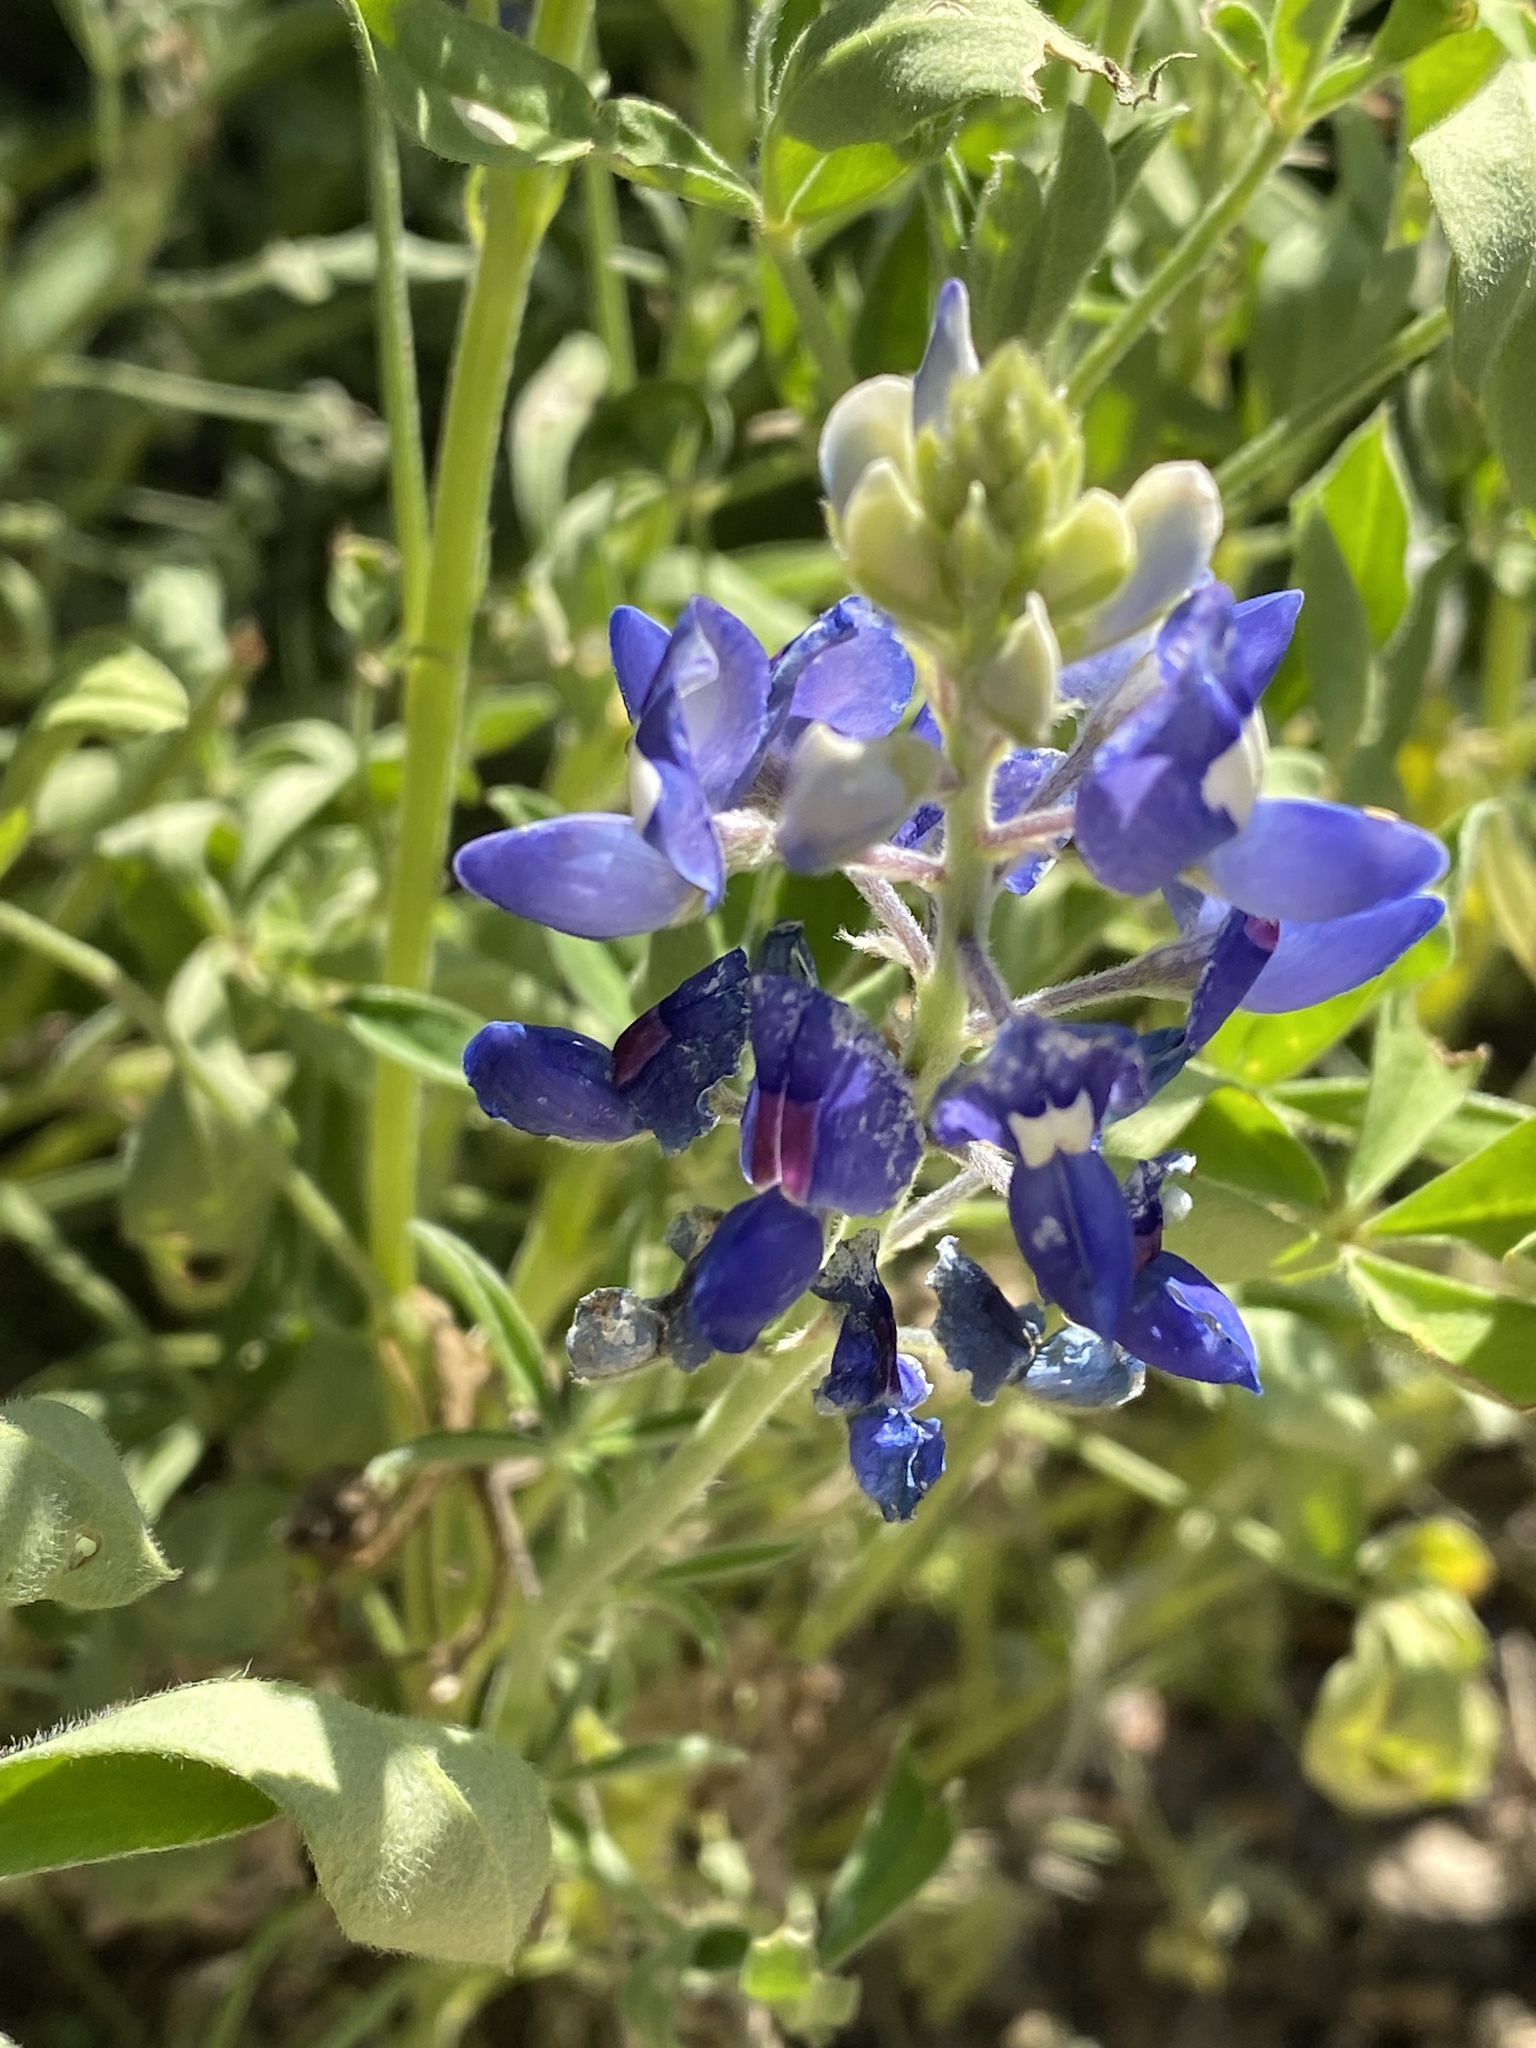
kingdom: Plantae
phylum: Tracheophyta
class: Magnoliopsida
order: Fabales
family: Fabaceae
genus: Lupinus
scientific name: Lupinus texensis
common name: Texas bluebonnet
